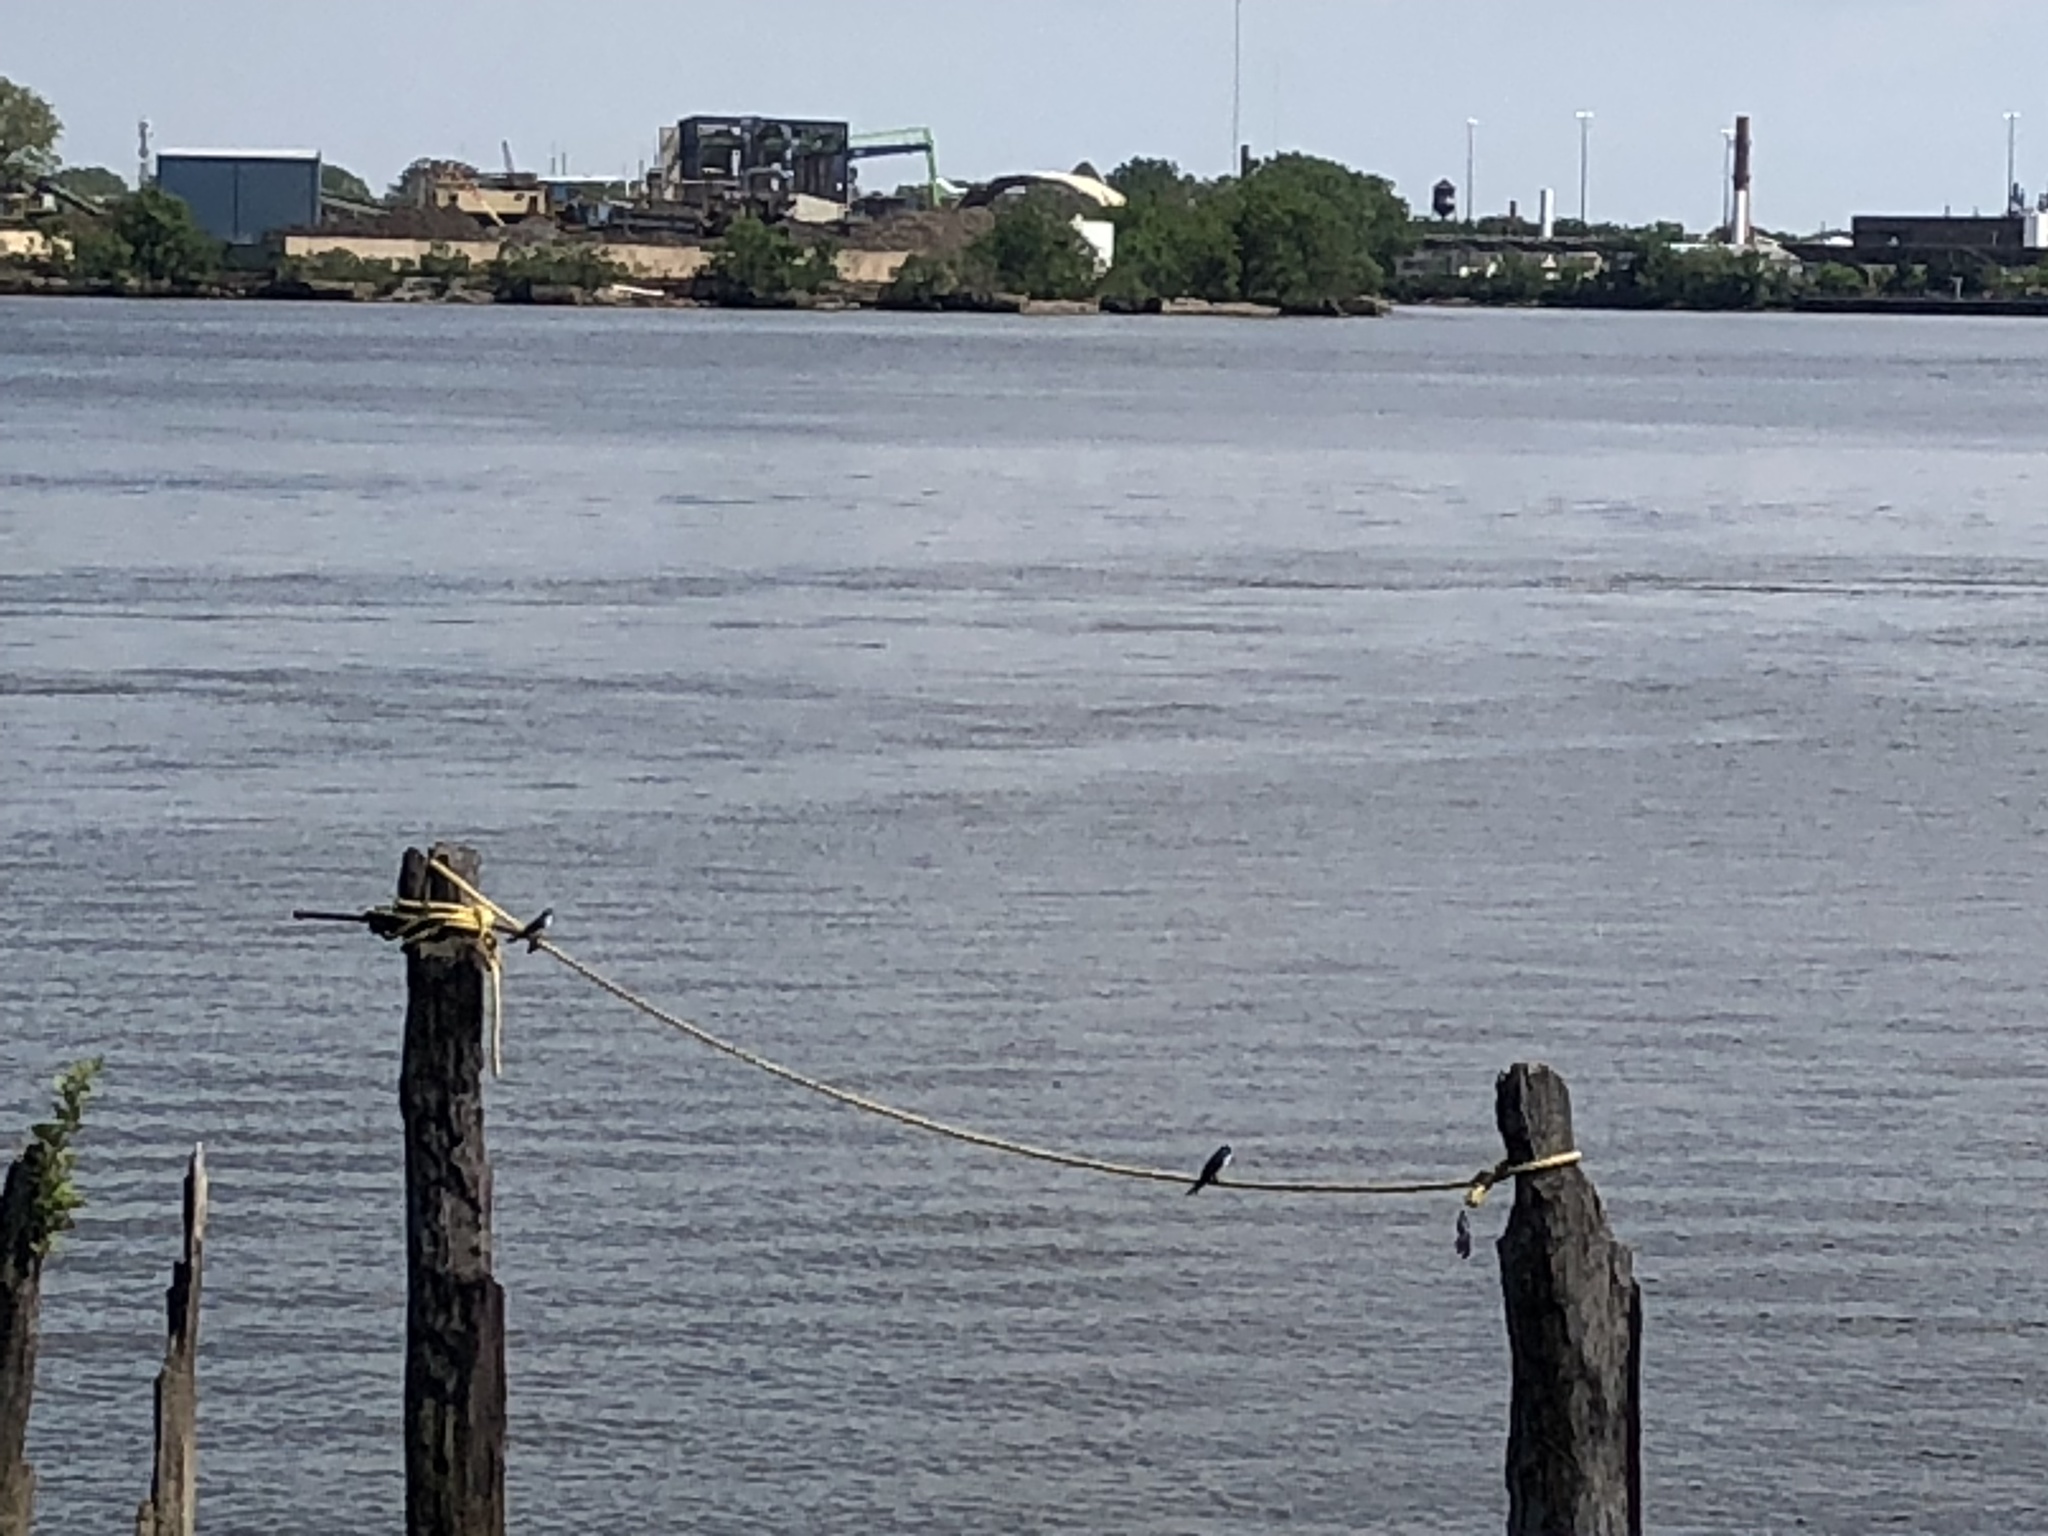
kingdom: Animalia
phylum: Chordata
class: Aves
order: Passeriformes
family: Hirundinidae
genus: Tachycineta
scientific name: Tachycineta bicolor
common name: Tree swallow
